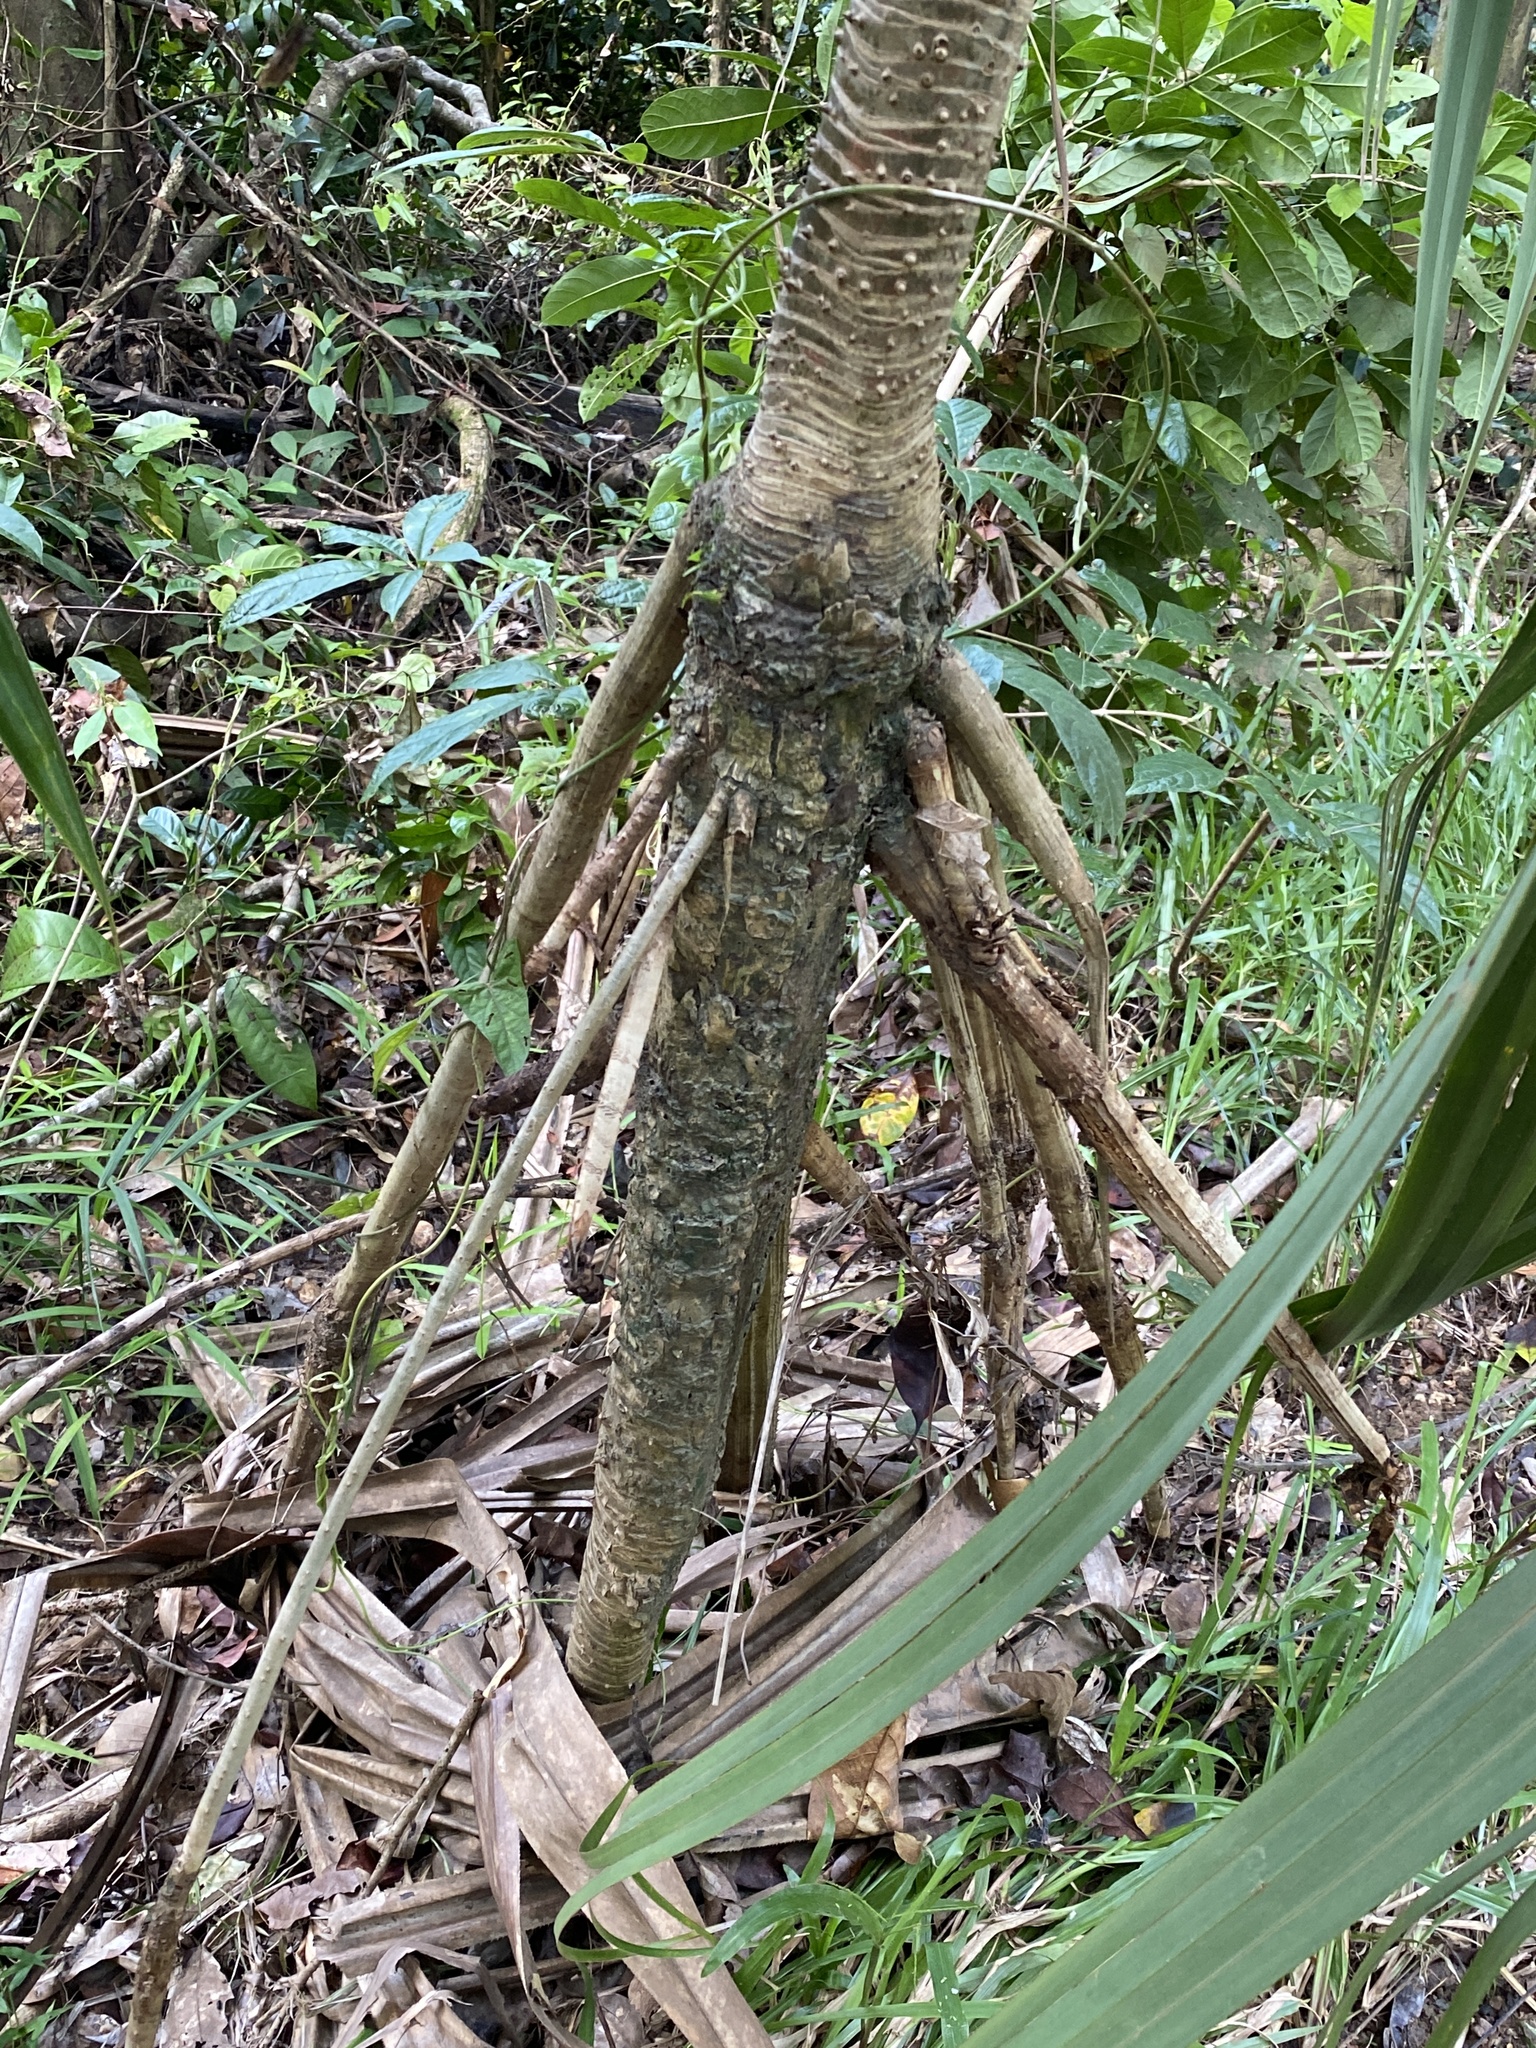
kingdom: Plantae
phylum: Tracheophyta
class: Liliopsida
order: Pandanales
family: Pandanaceae
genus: Pandanus
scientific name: Pandanus krauelianus
